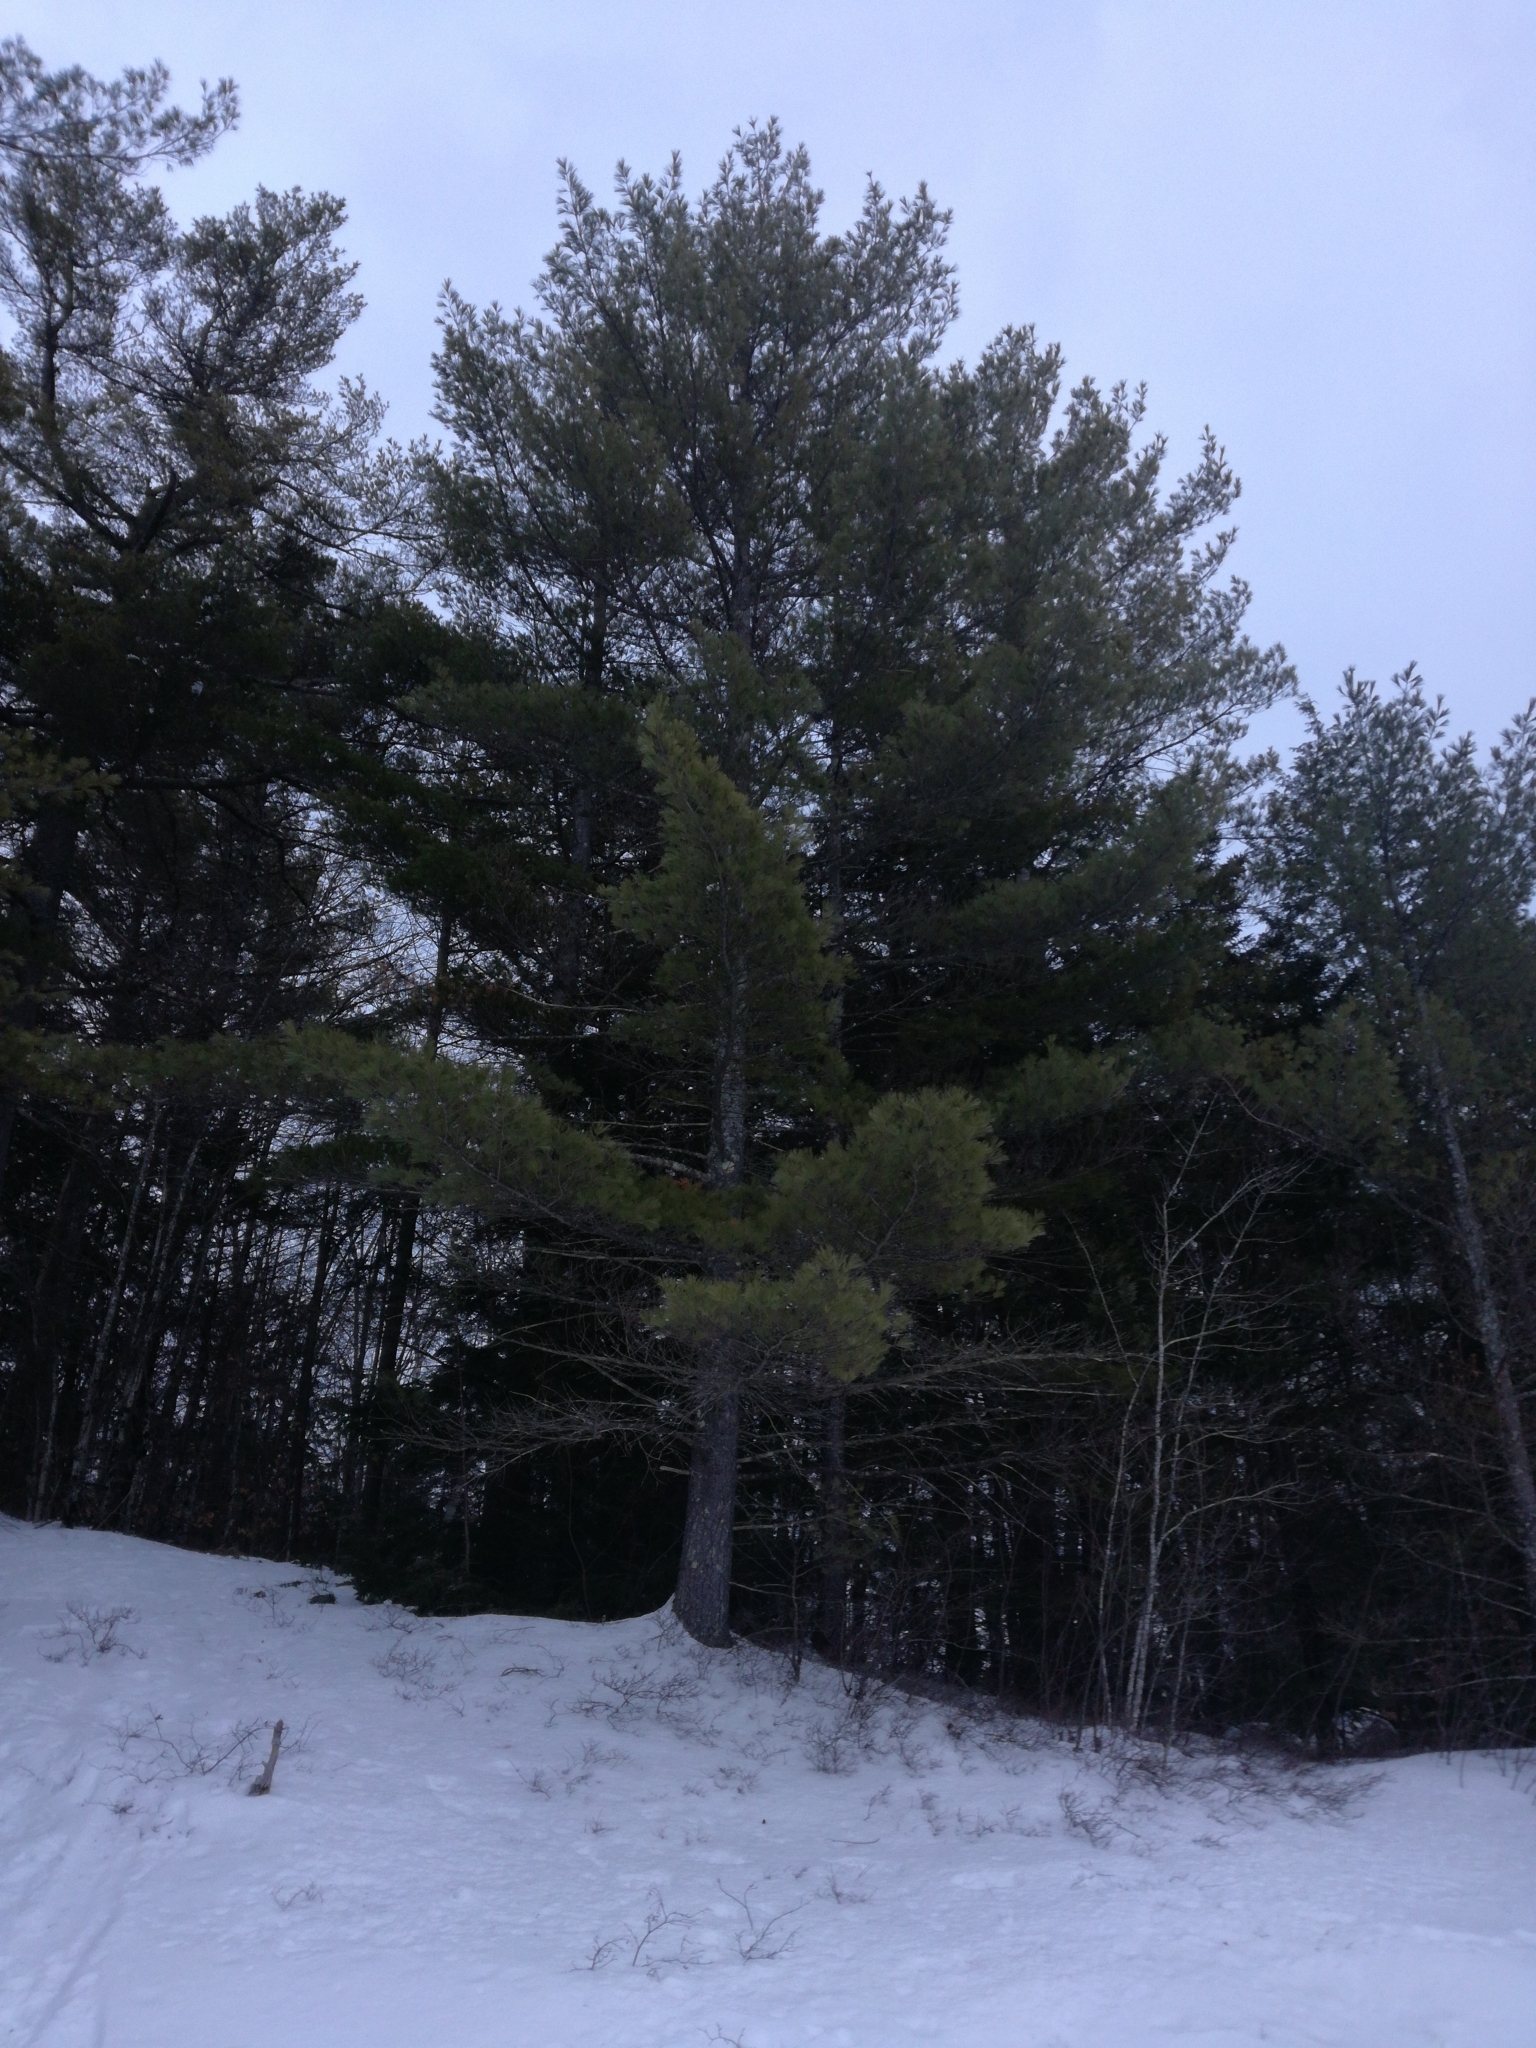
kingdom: Plantae
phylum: Tracheophyta
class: Pinopsida
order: Pinales
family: Pinaceae
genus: Pinus
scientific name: Pinus strobus
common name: Weymouth pine
